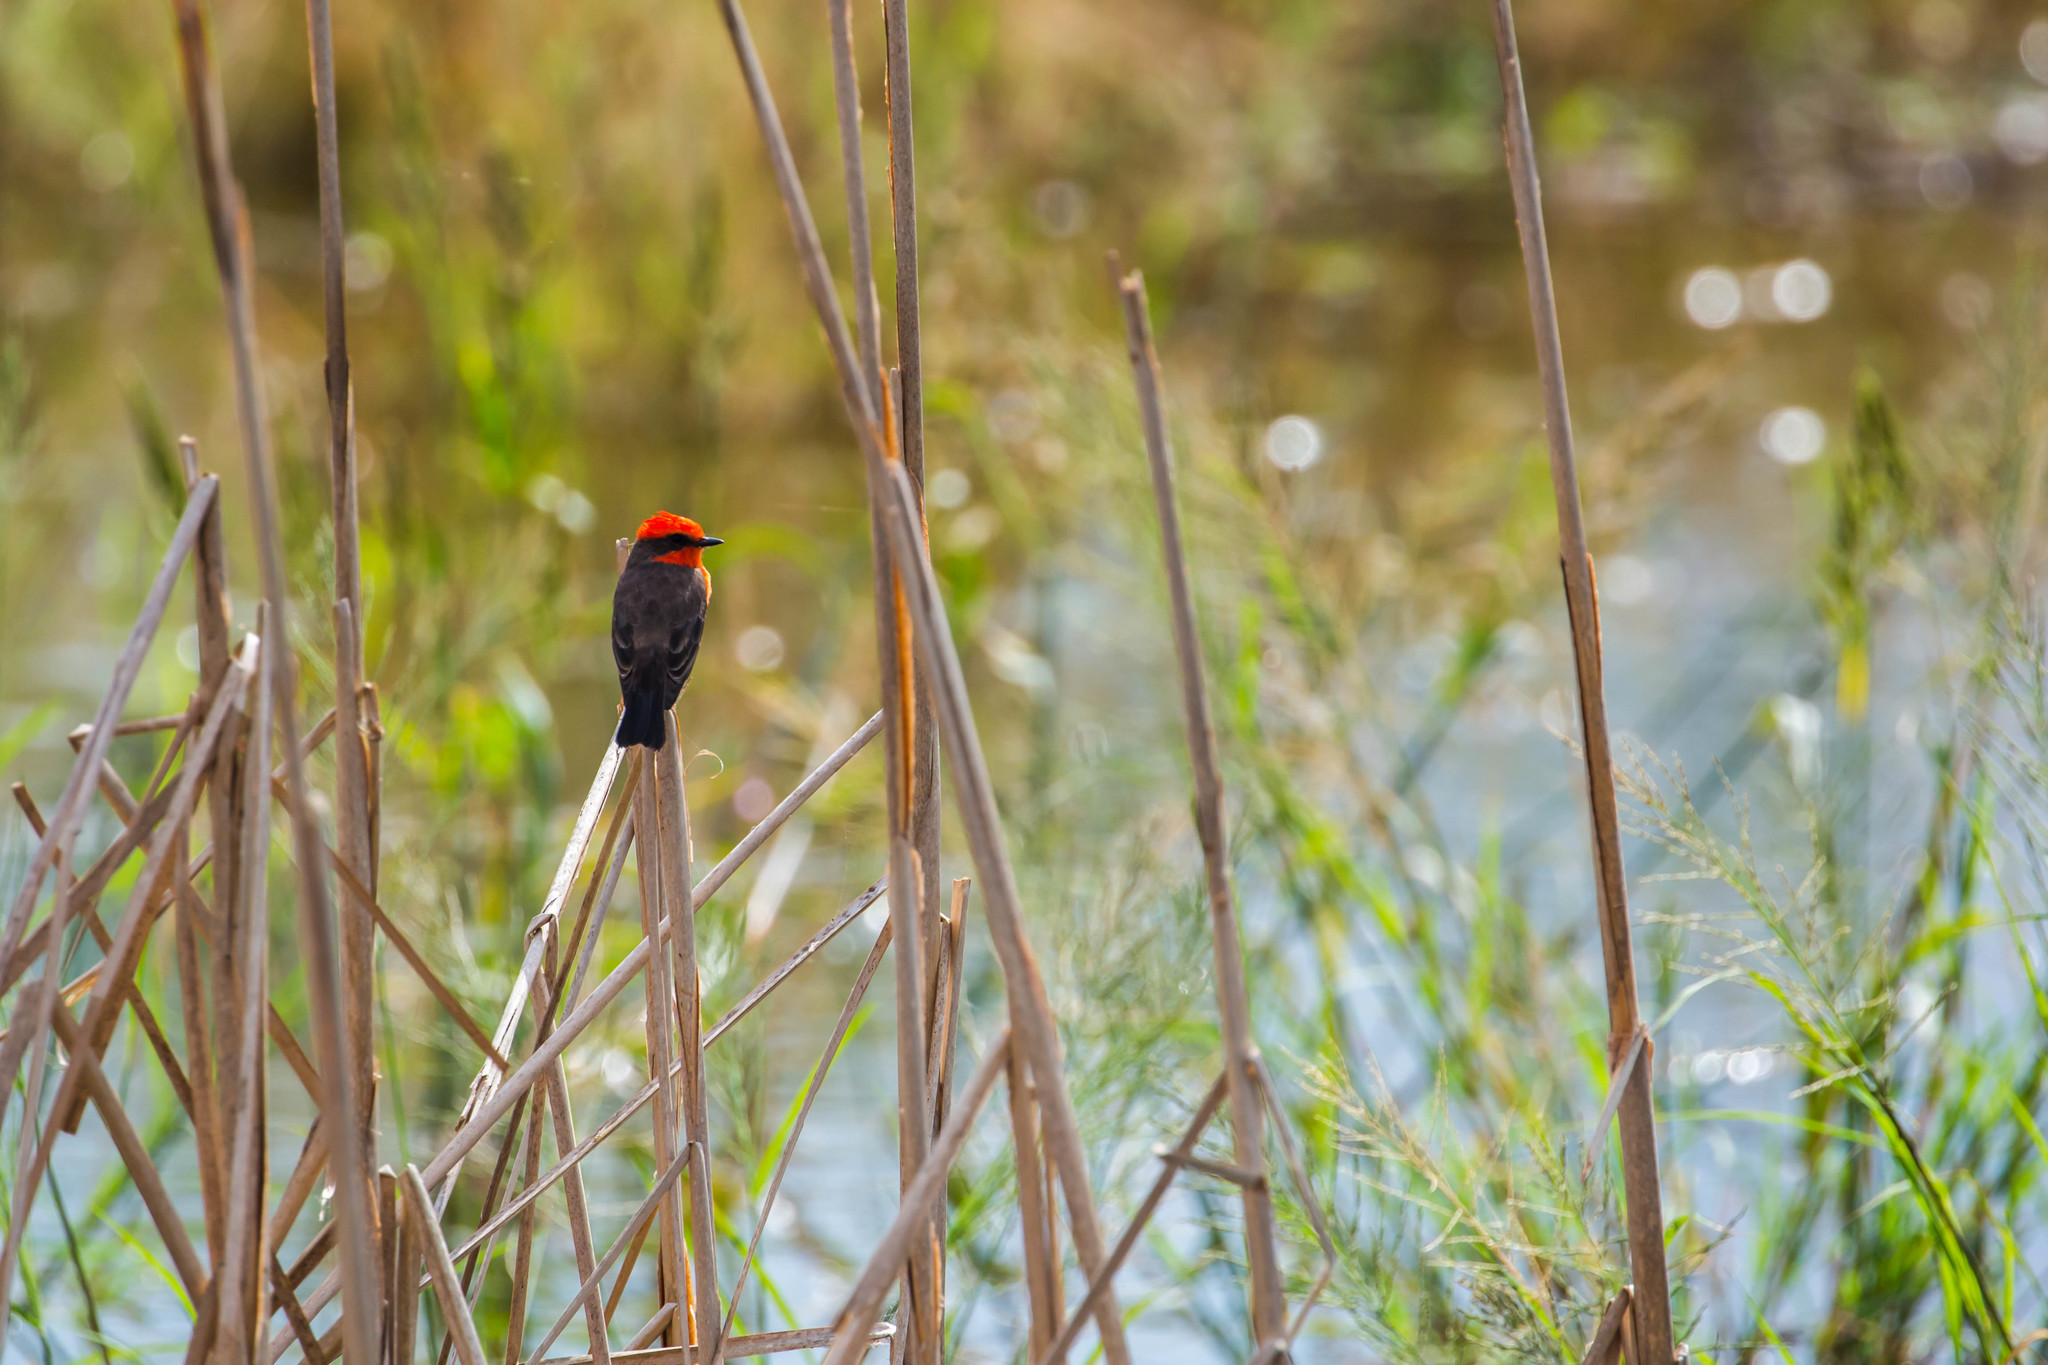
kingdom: Animalia
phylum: Chordata
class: Aves
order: Passeriformes
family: Tyrannidae
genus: Pyrocephalus
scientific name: Pyrocephalus rubinus
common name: Vermilion flycatcher
